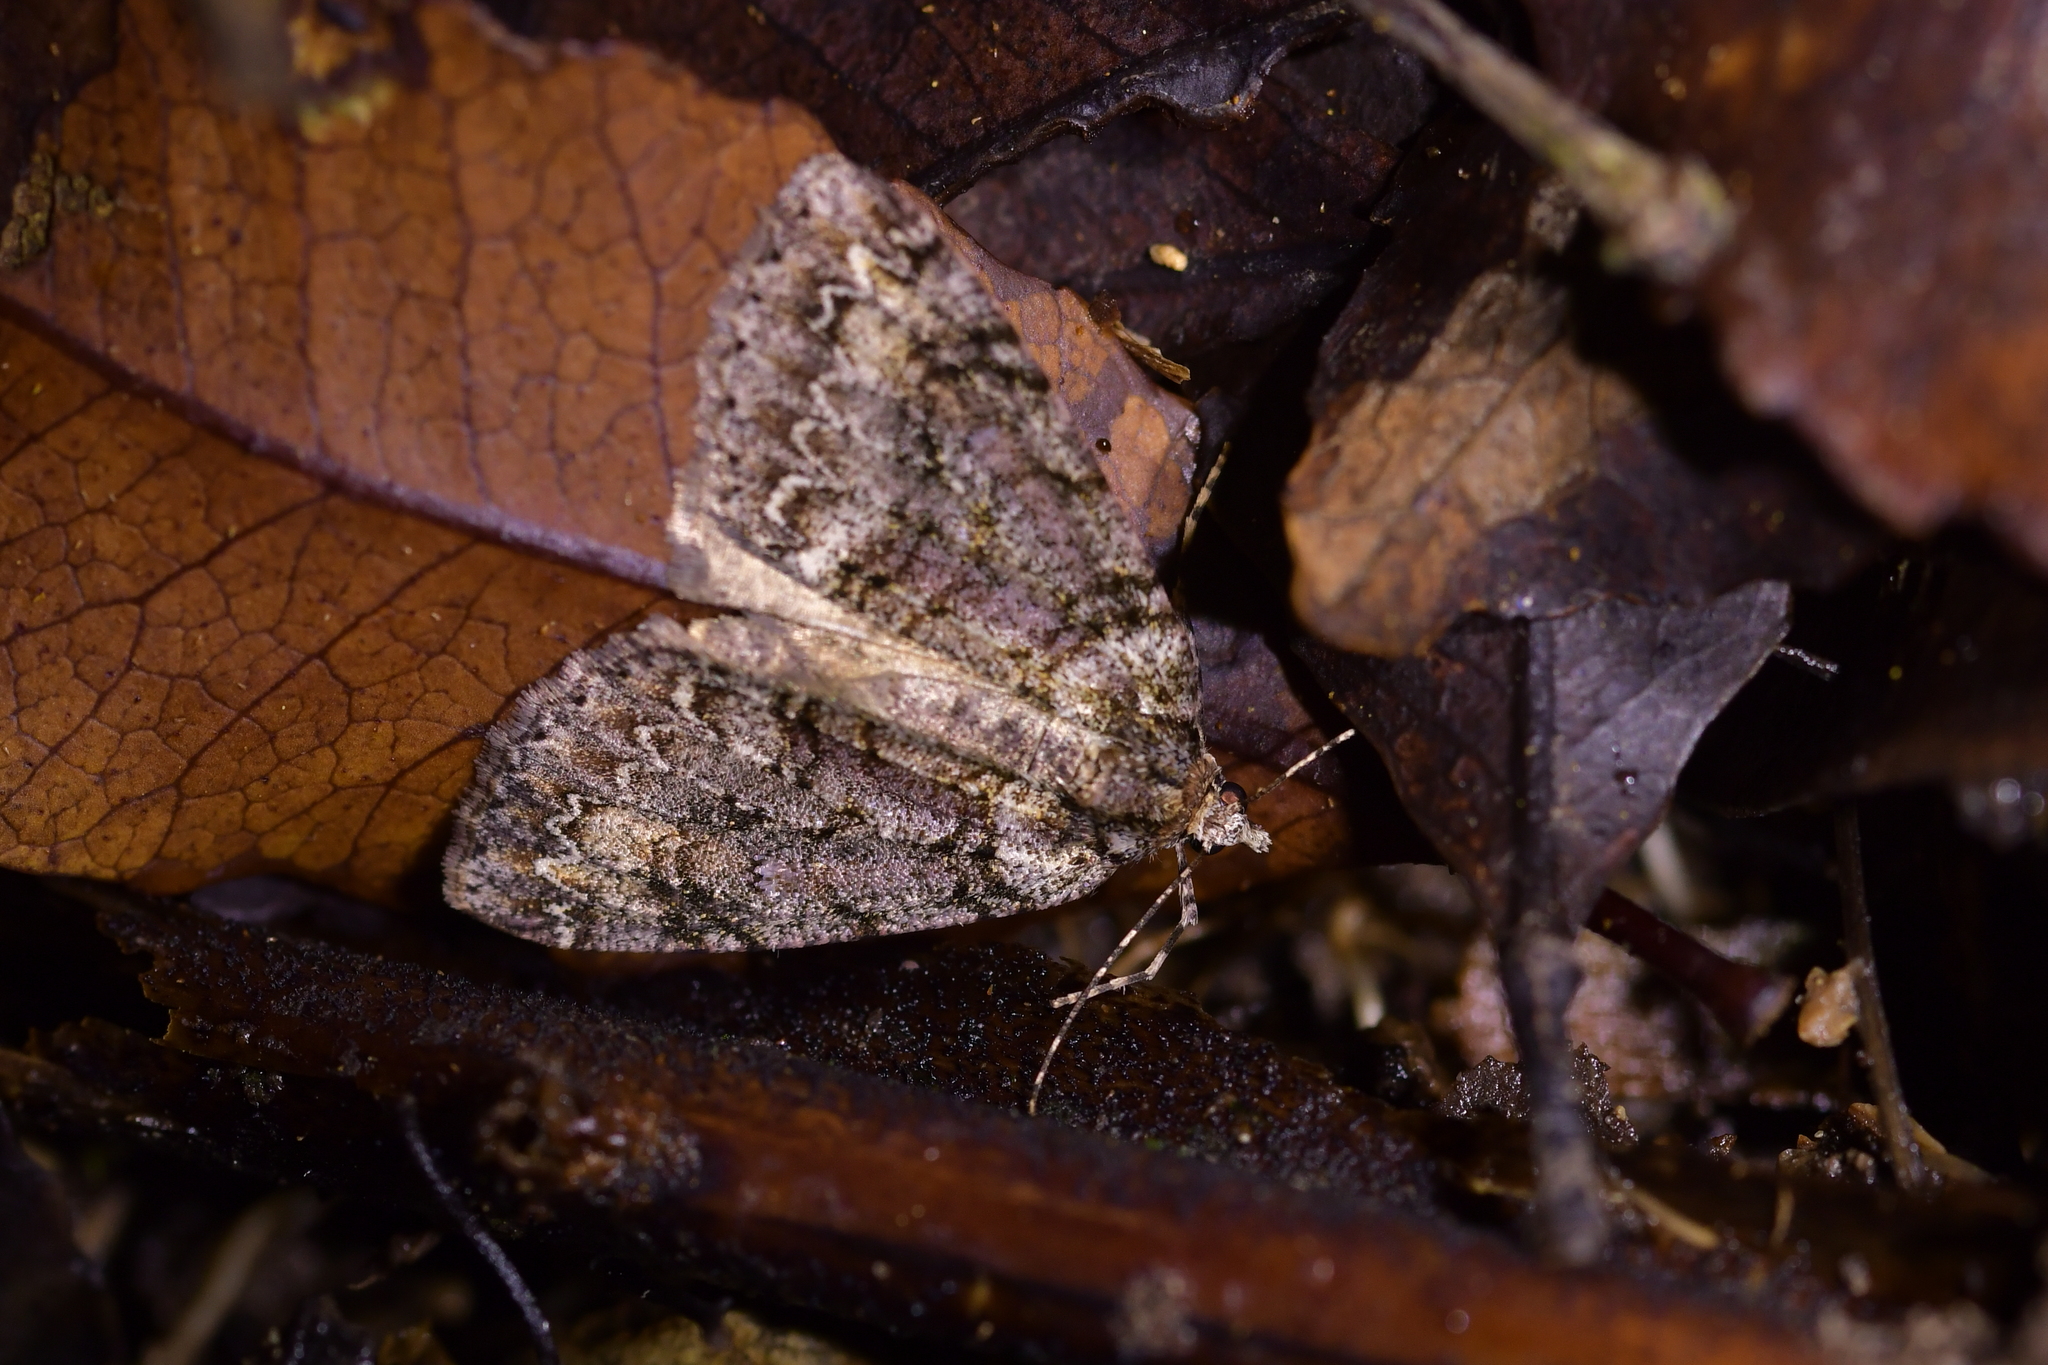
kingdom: Animalia
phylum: Arthropoda
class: Insecta
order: Lepidoptera
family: Geometridae
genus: Pseudocoremia
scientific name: Pseudocoremia suavis
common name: Common forest looper
